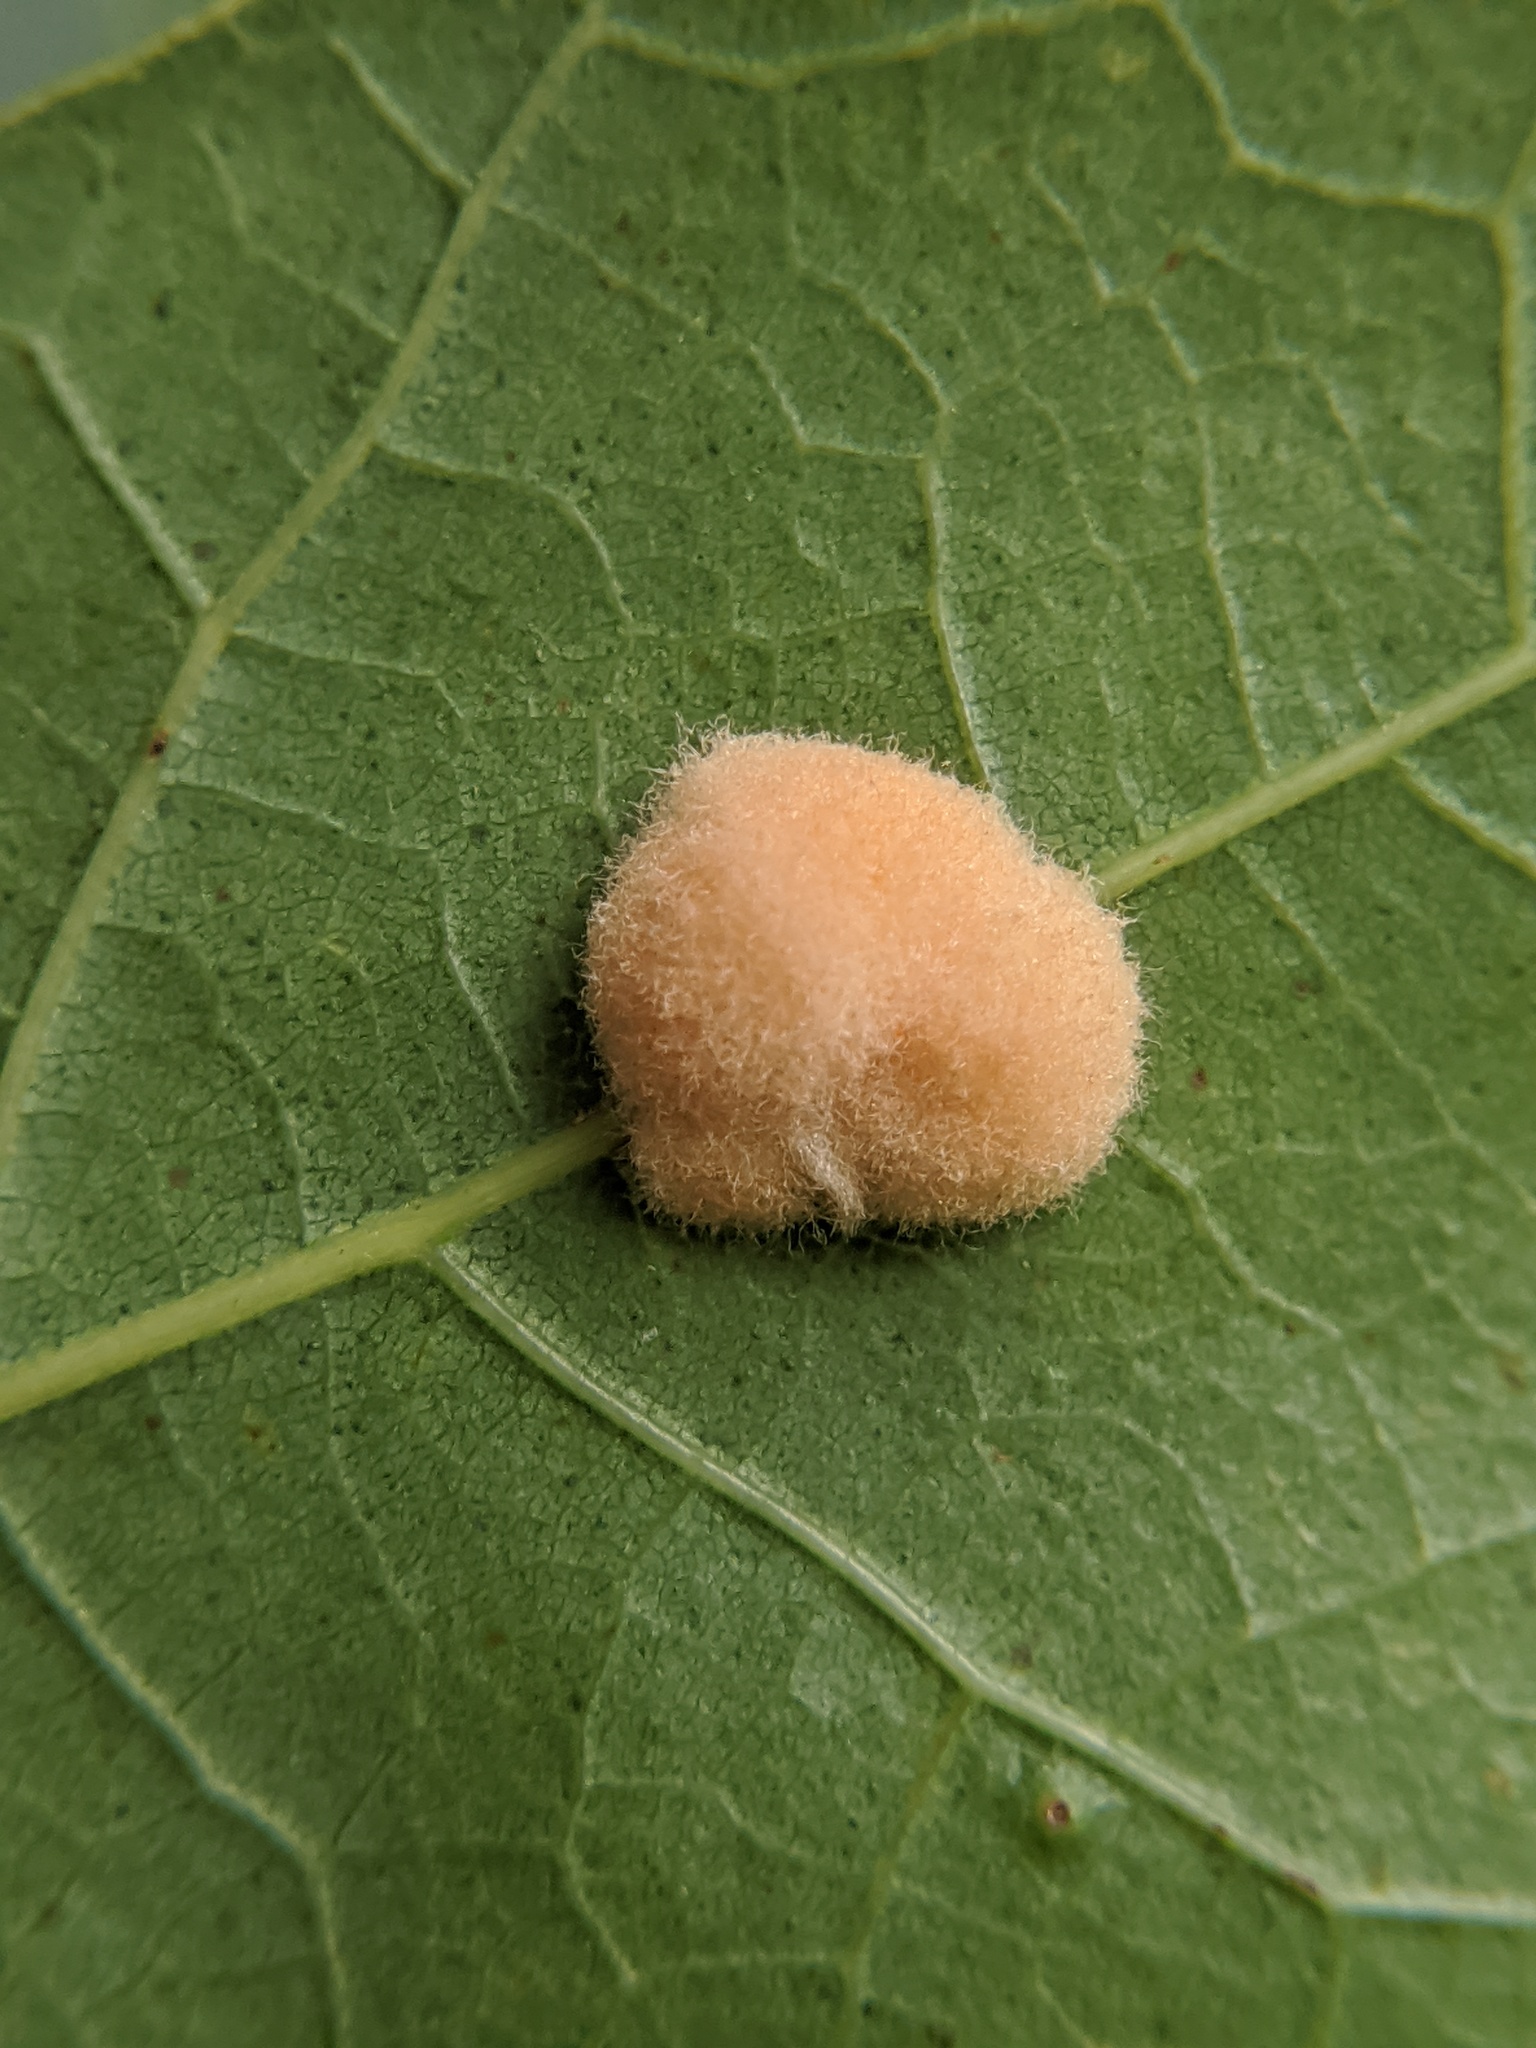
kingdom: Animalia
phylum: Arthropoda
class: Insecta
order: Hymenoptera
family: Cynipidae
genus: Callirhytis
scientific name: Callirhytis
